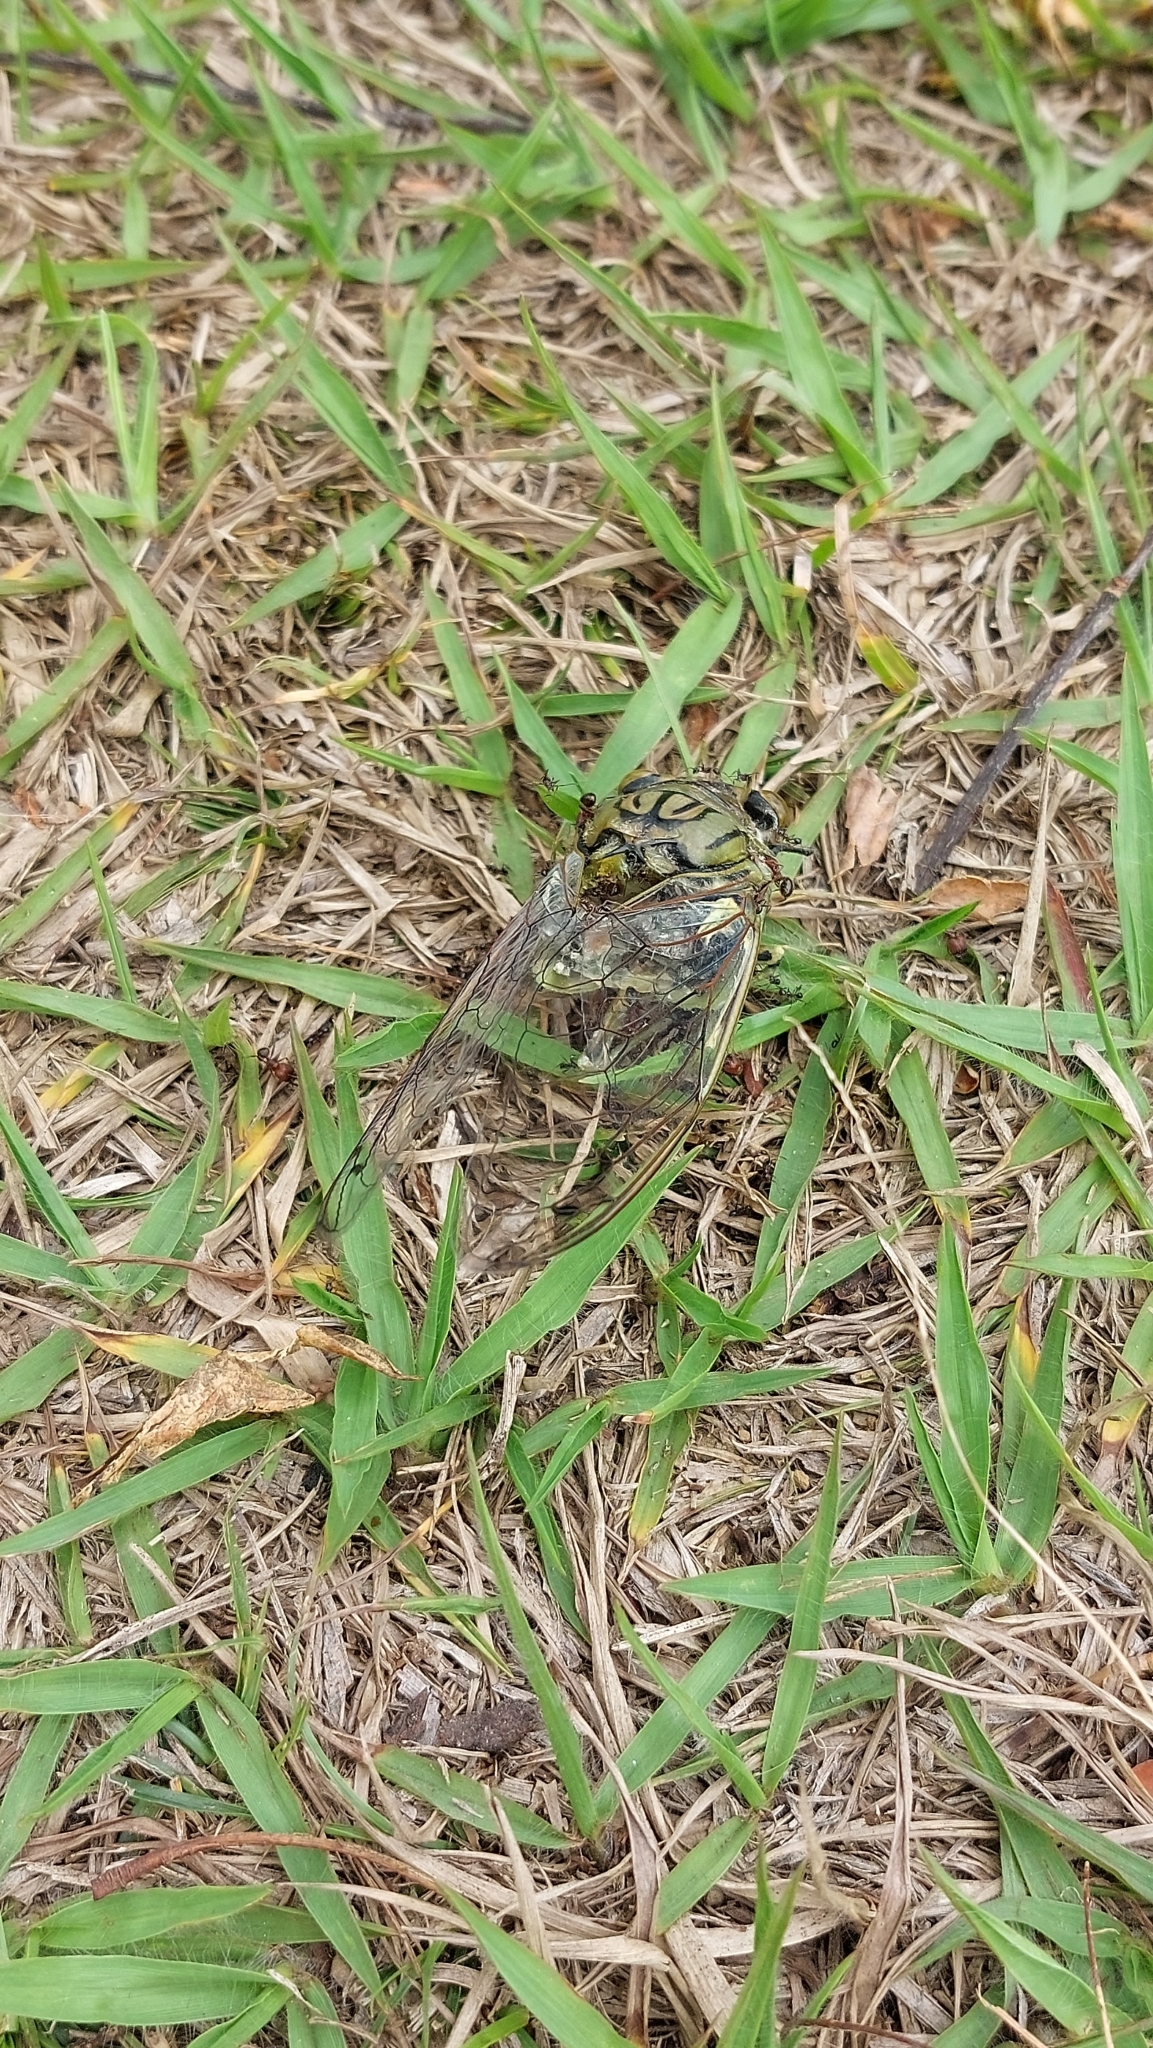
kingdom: Animalia
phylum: Arthropoda
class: Insecta
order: Hemiptera
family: Cicadidae
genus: Quesada
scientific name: Quesada gigas
